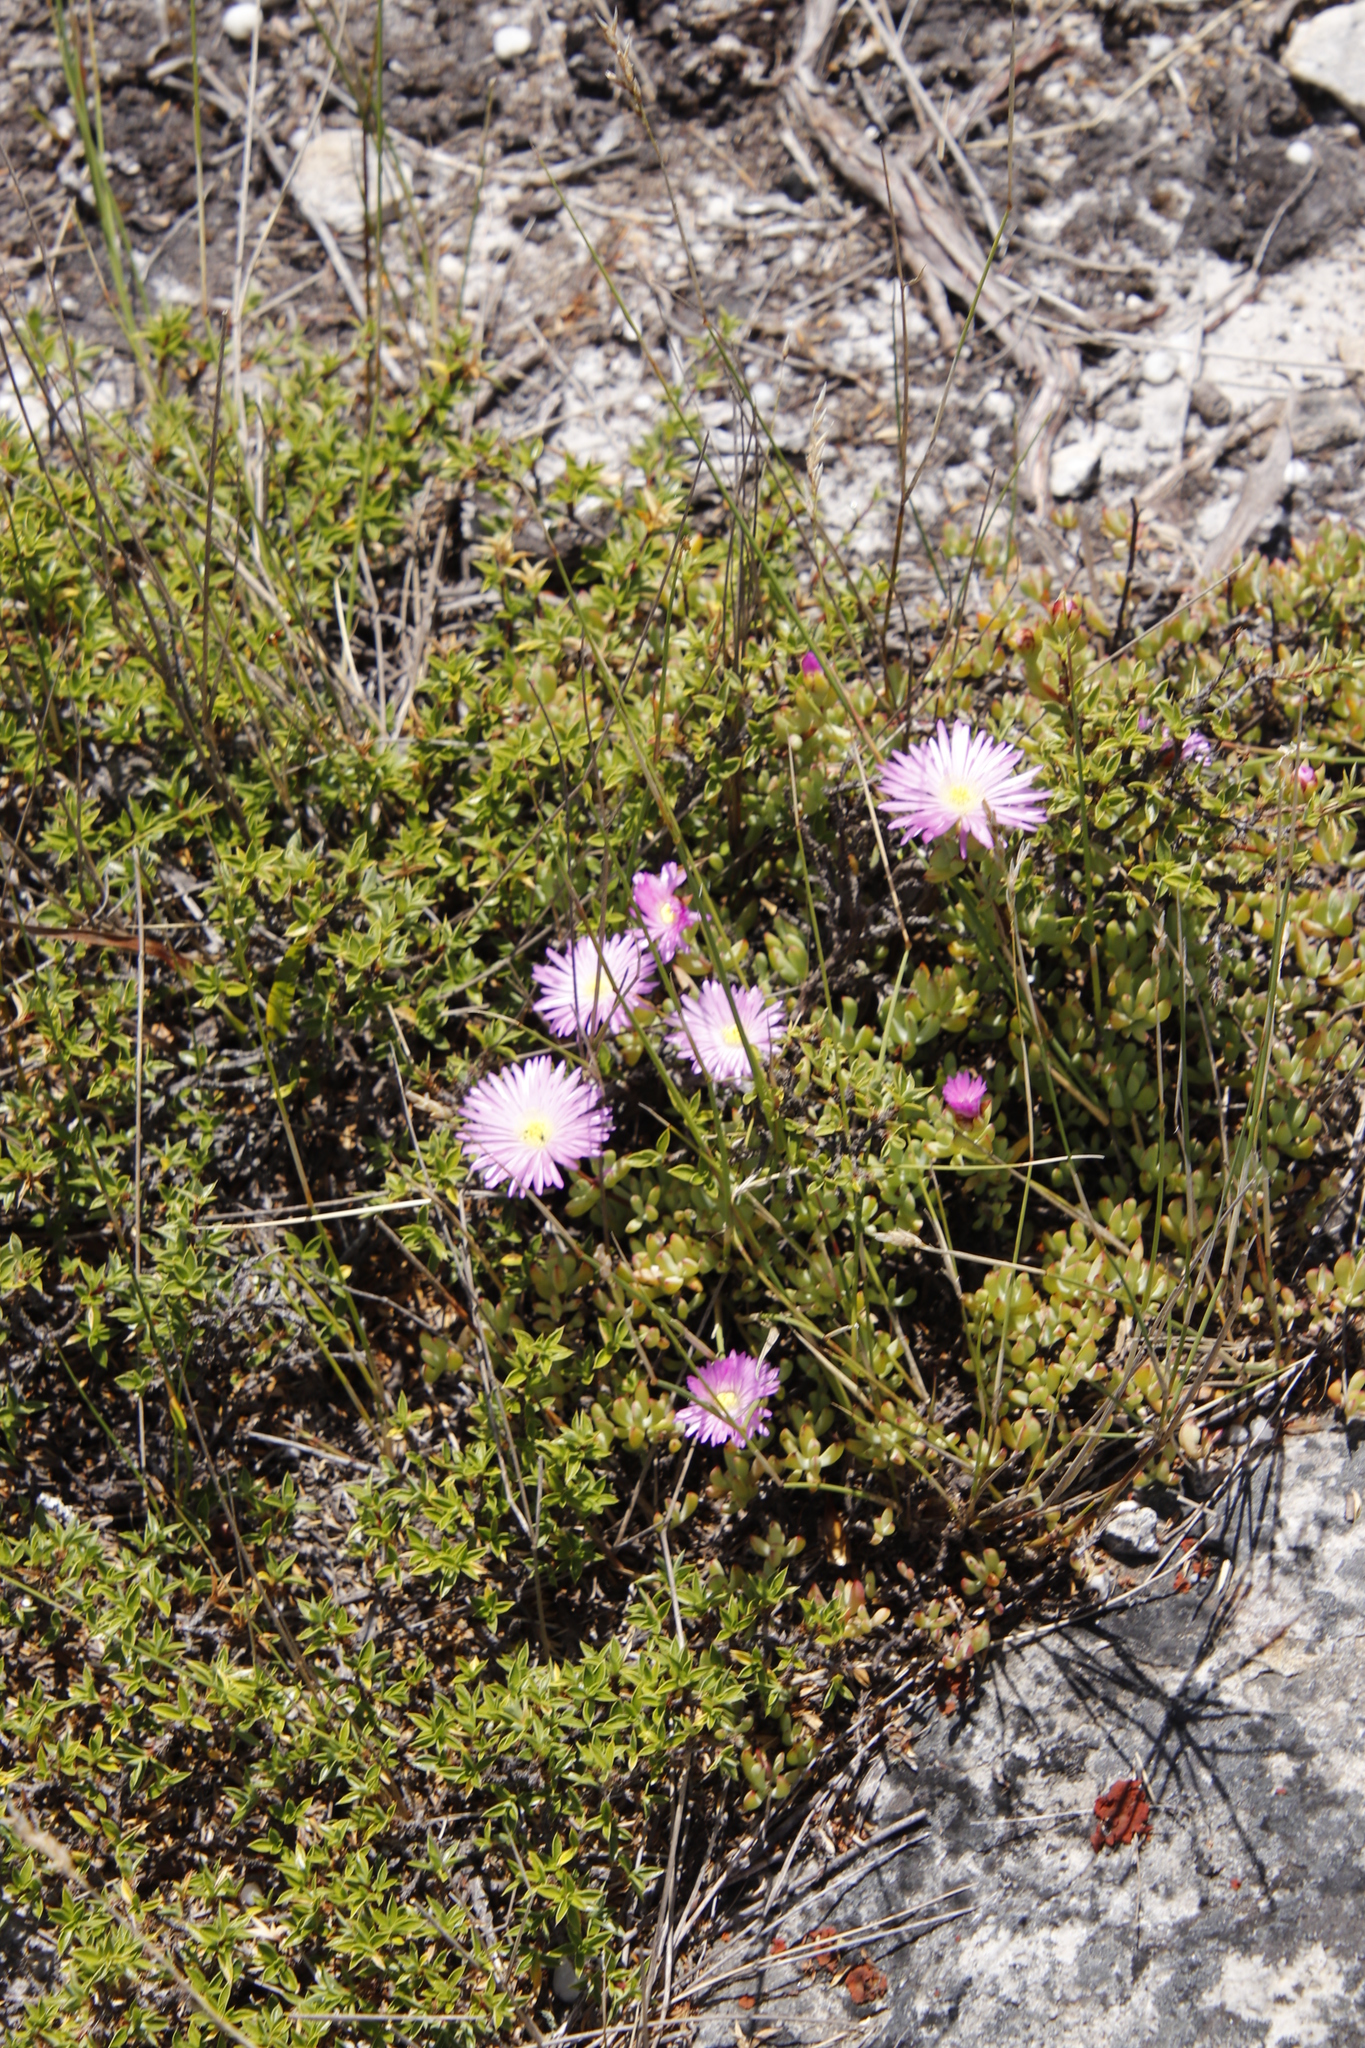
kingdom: Plantae
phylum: Tracheophyta
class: Magnoliopsida
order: Caryophyllales
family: Aizoaceae
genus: Oscularia
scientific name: Oscularia falciformis
